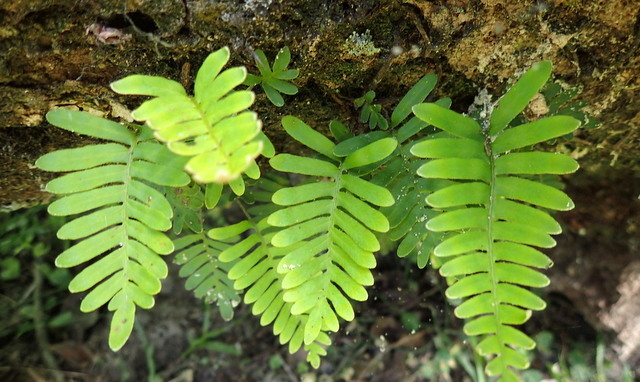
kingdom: Plantae
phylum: Tracheophyta
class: Polypodiopsida
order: Polypodiales
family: Polypodiaceae
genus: Pleopeltis
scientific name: Pleopeltis michauxiana
